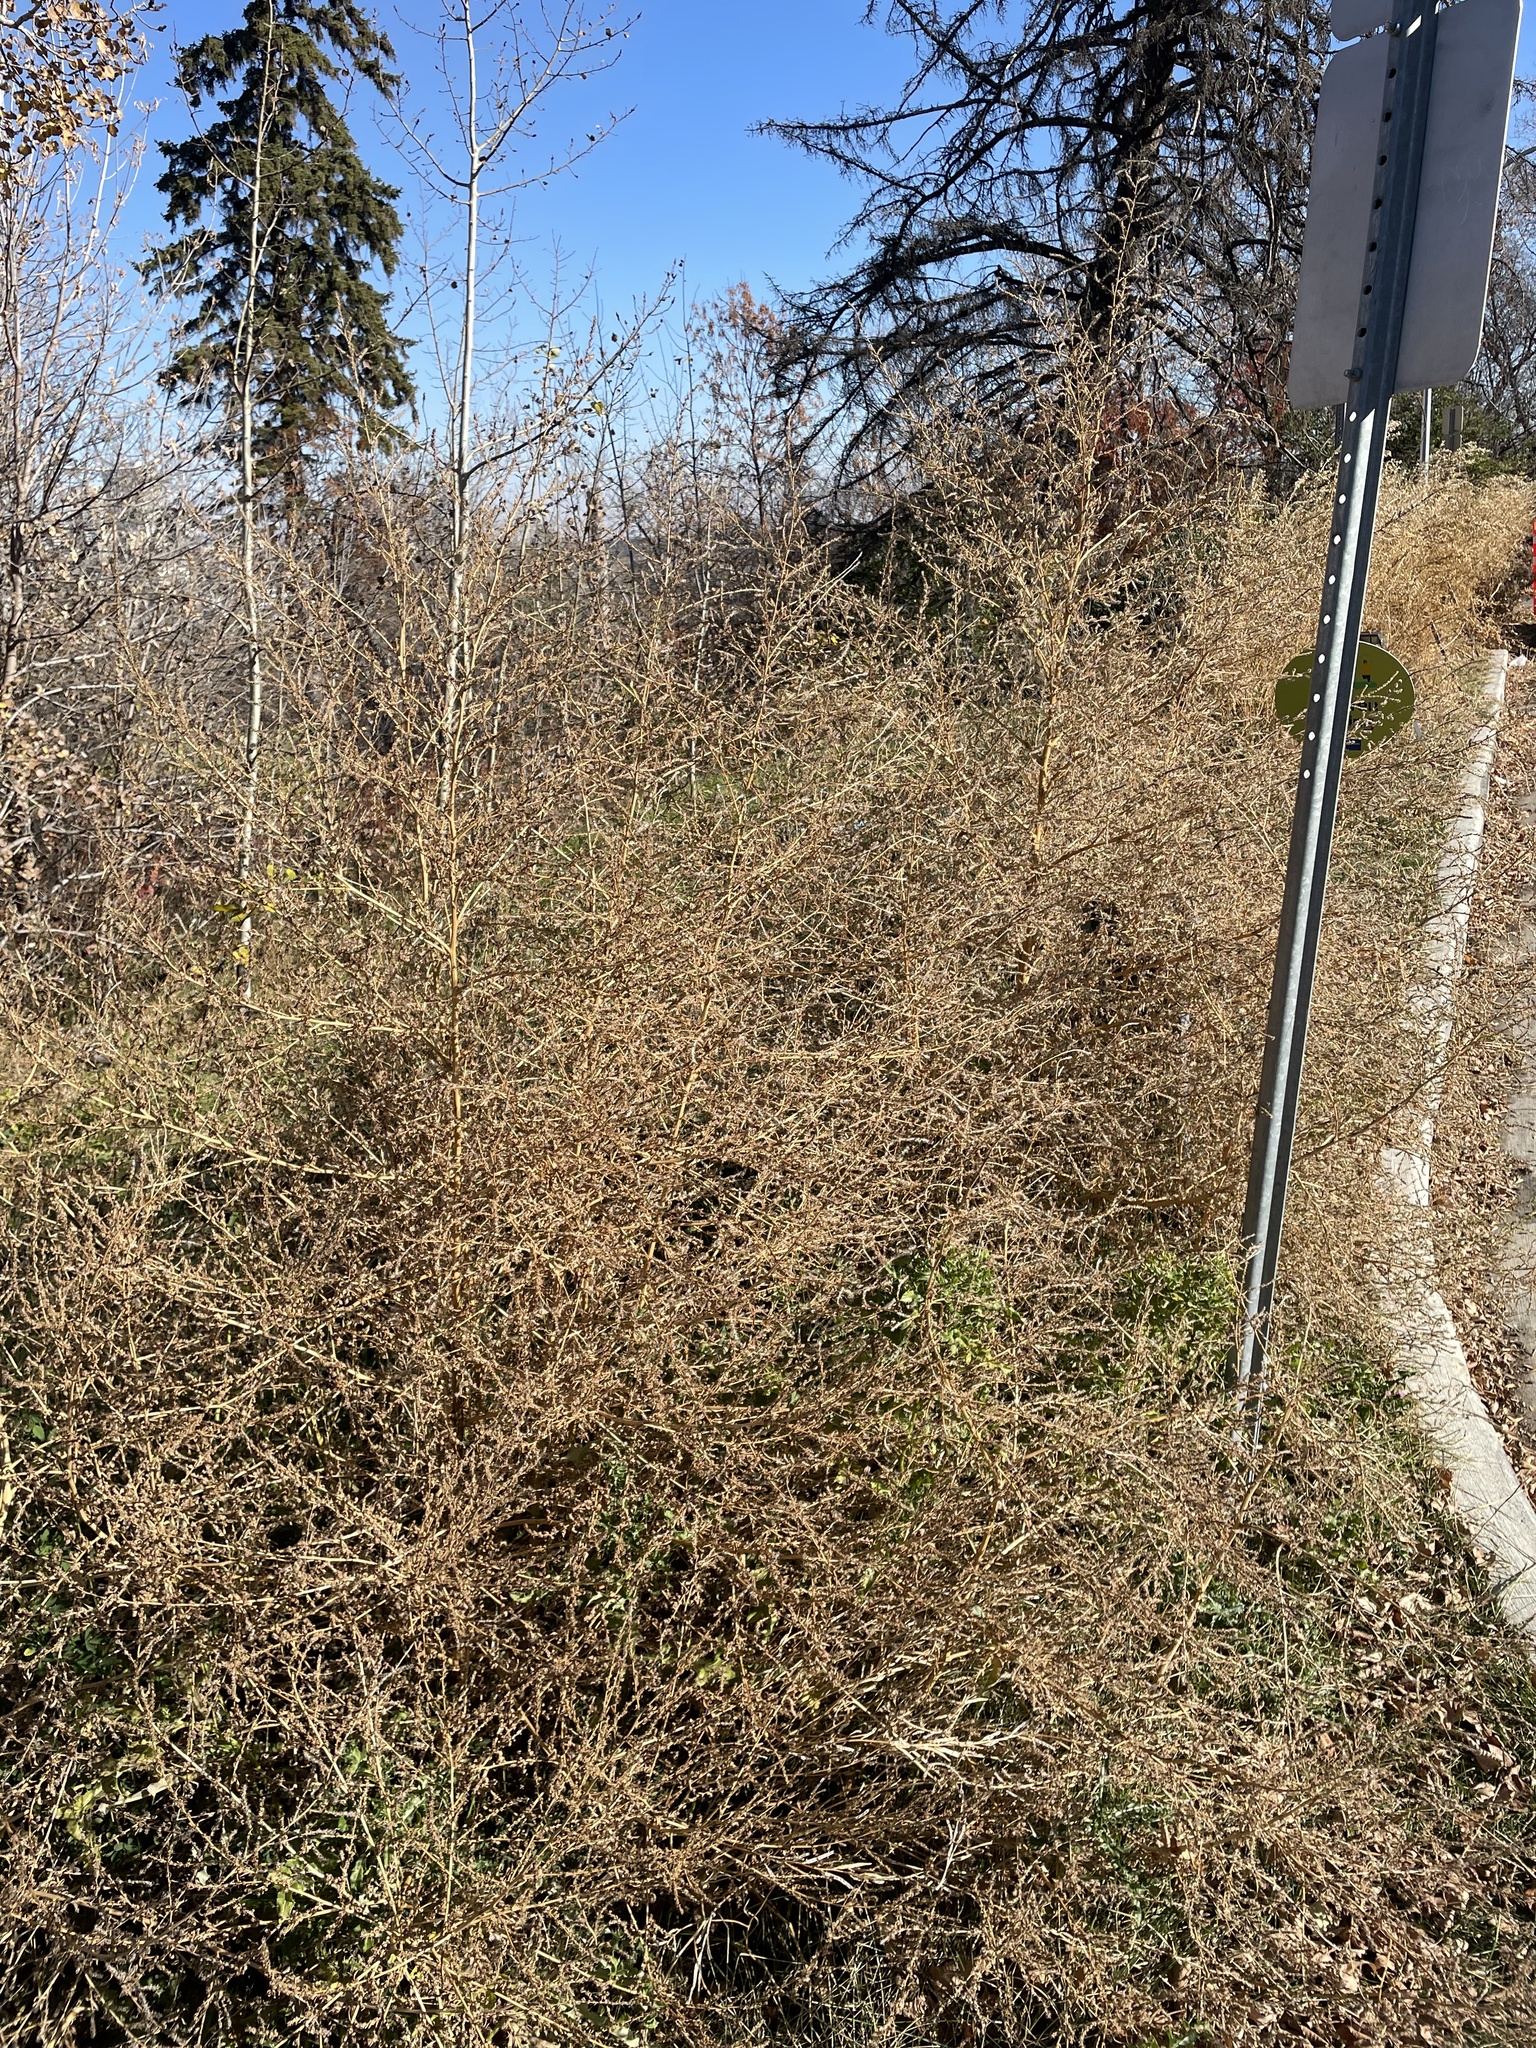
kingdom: Plantae
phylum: Tracheophyta
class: Magnoliopsida
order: Caryophyllales
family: Amaranthaceae
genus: Bassia
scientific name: Bassia scoparia
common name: Belvedere
